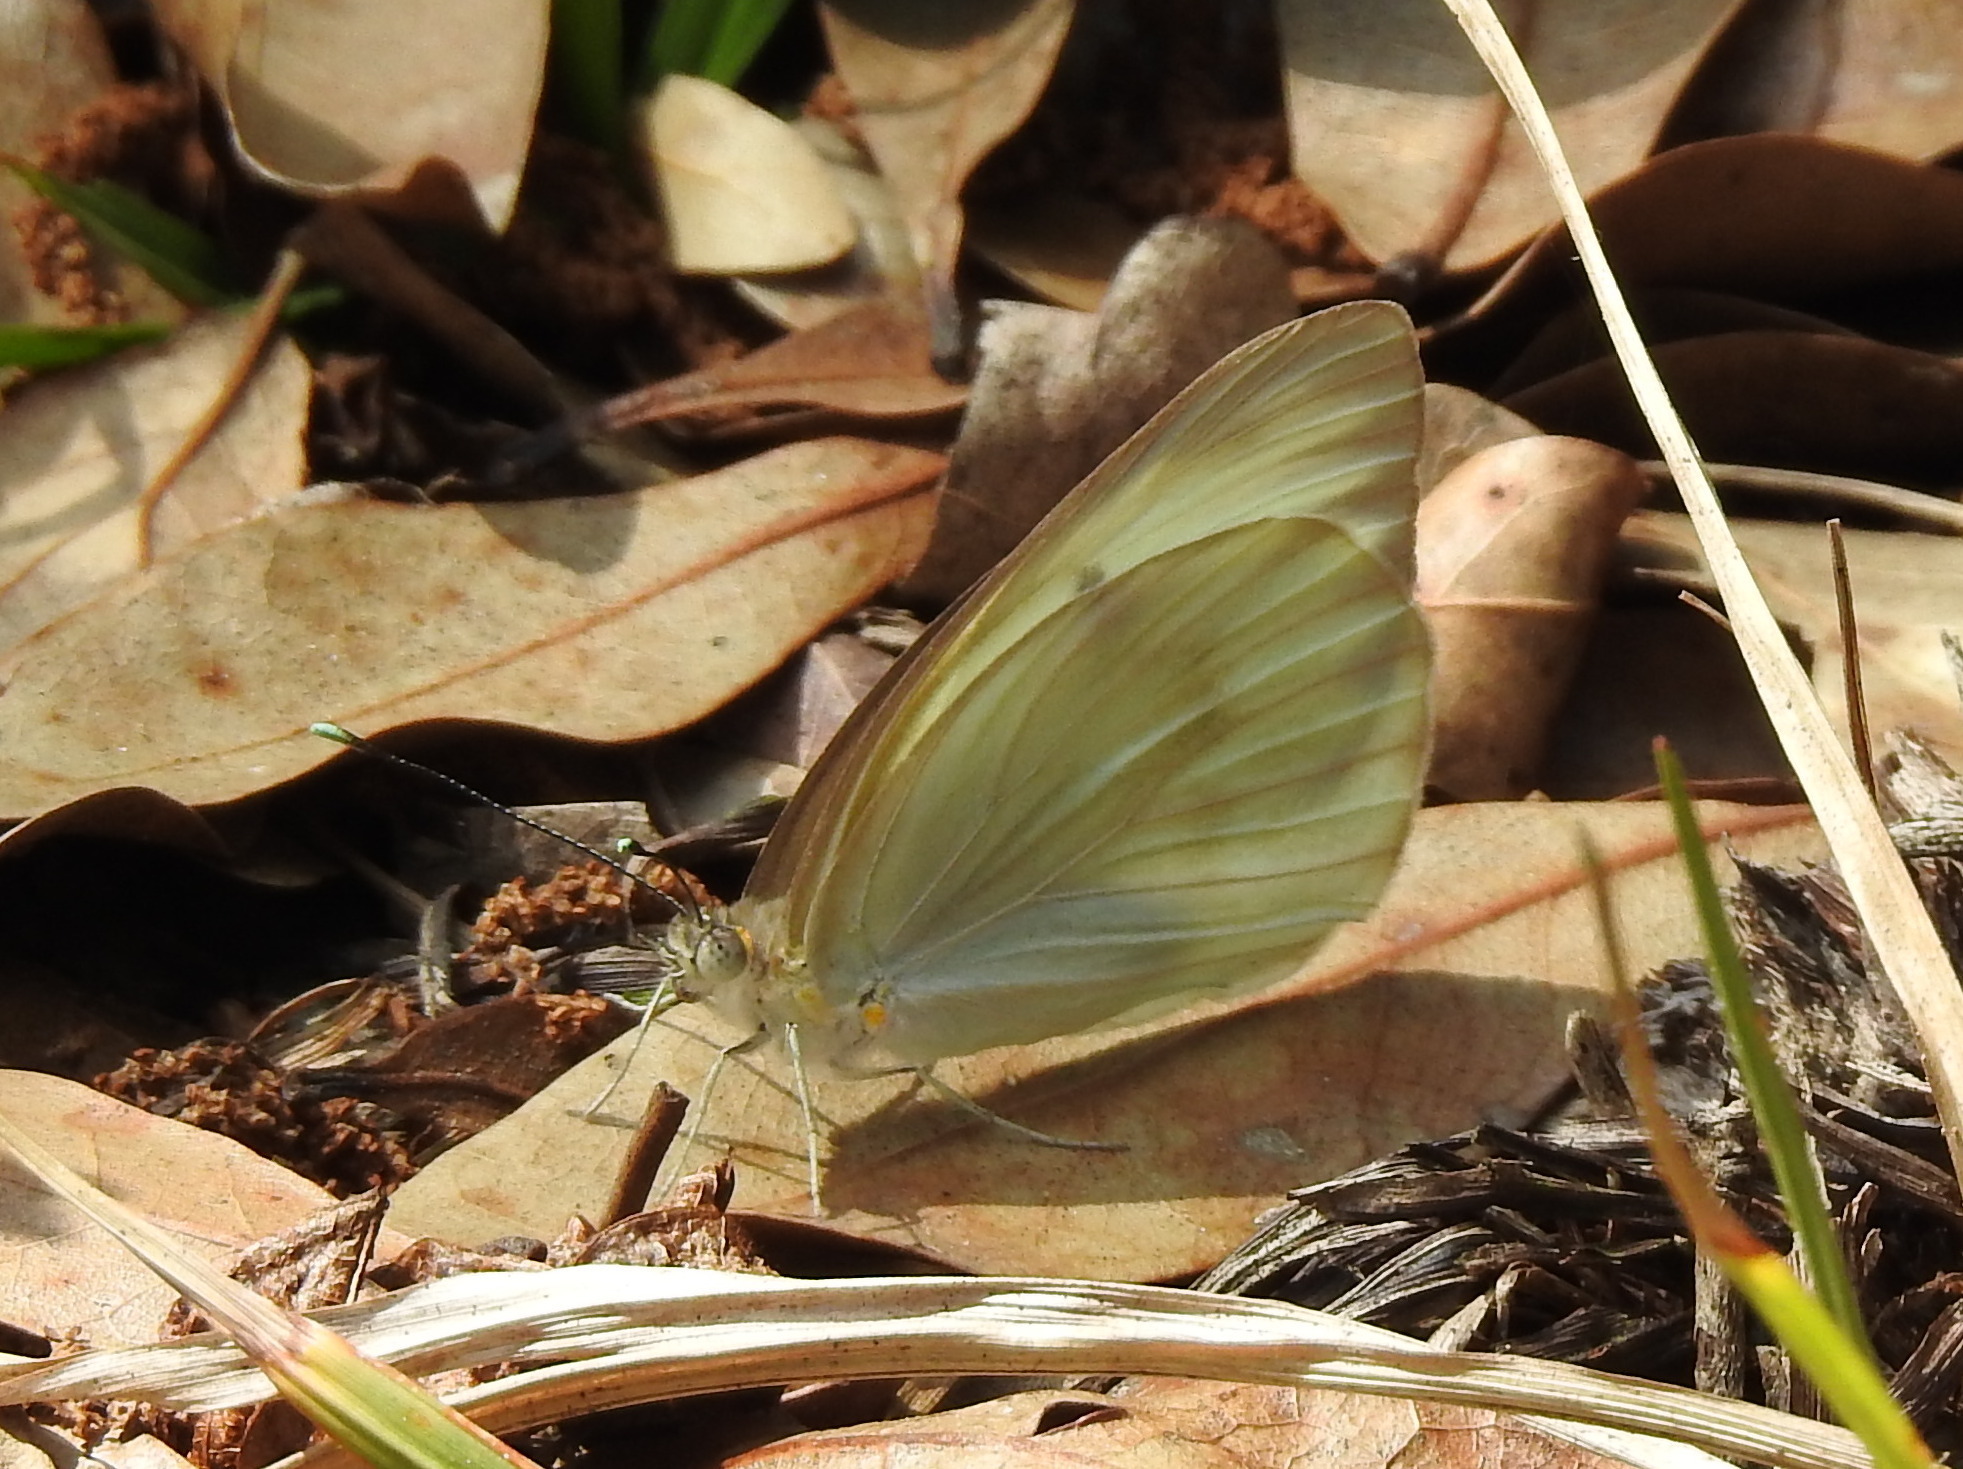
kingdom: Animalia
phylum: Arthropoda
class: Insecta
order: Lepidoptera
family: Pieridae
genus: Ascia
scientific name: Ascia monuste
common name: Great southern white
